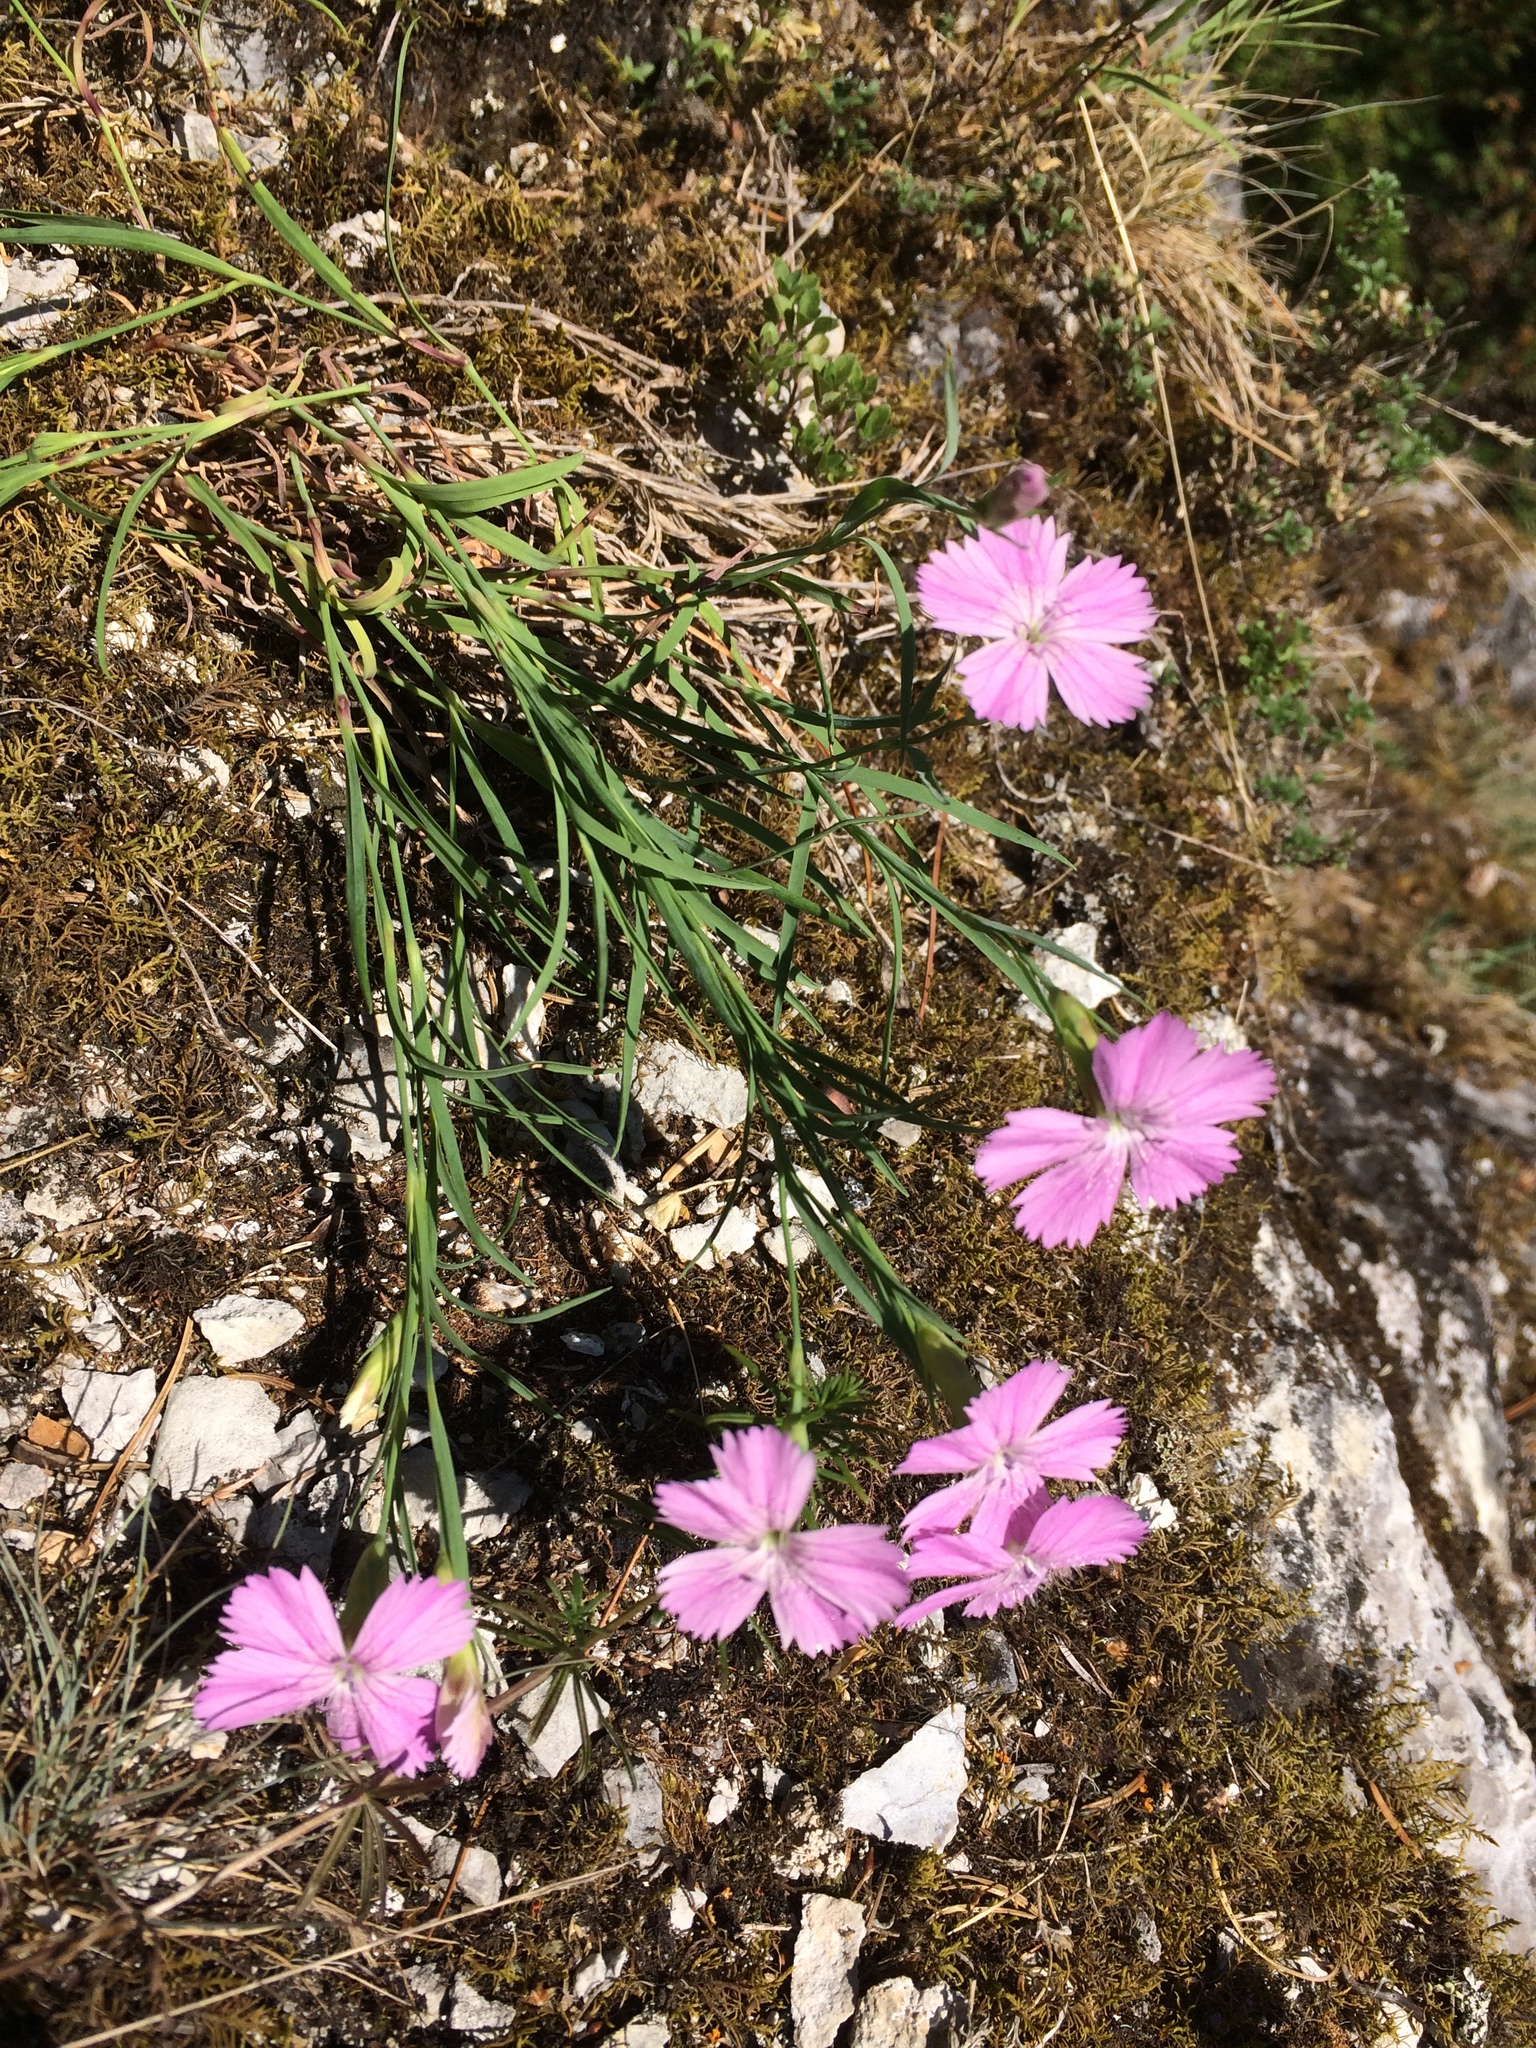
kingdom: Plantae
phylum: Tracheophyta
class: Magnoliopsida
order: Caryophyllales
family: Caryophyllaceae
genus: Dianthus
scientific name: Dianthus repens
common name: Northern pink
